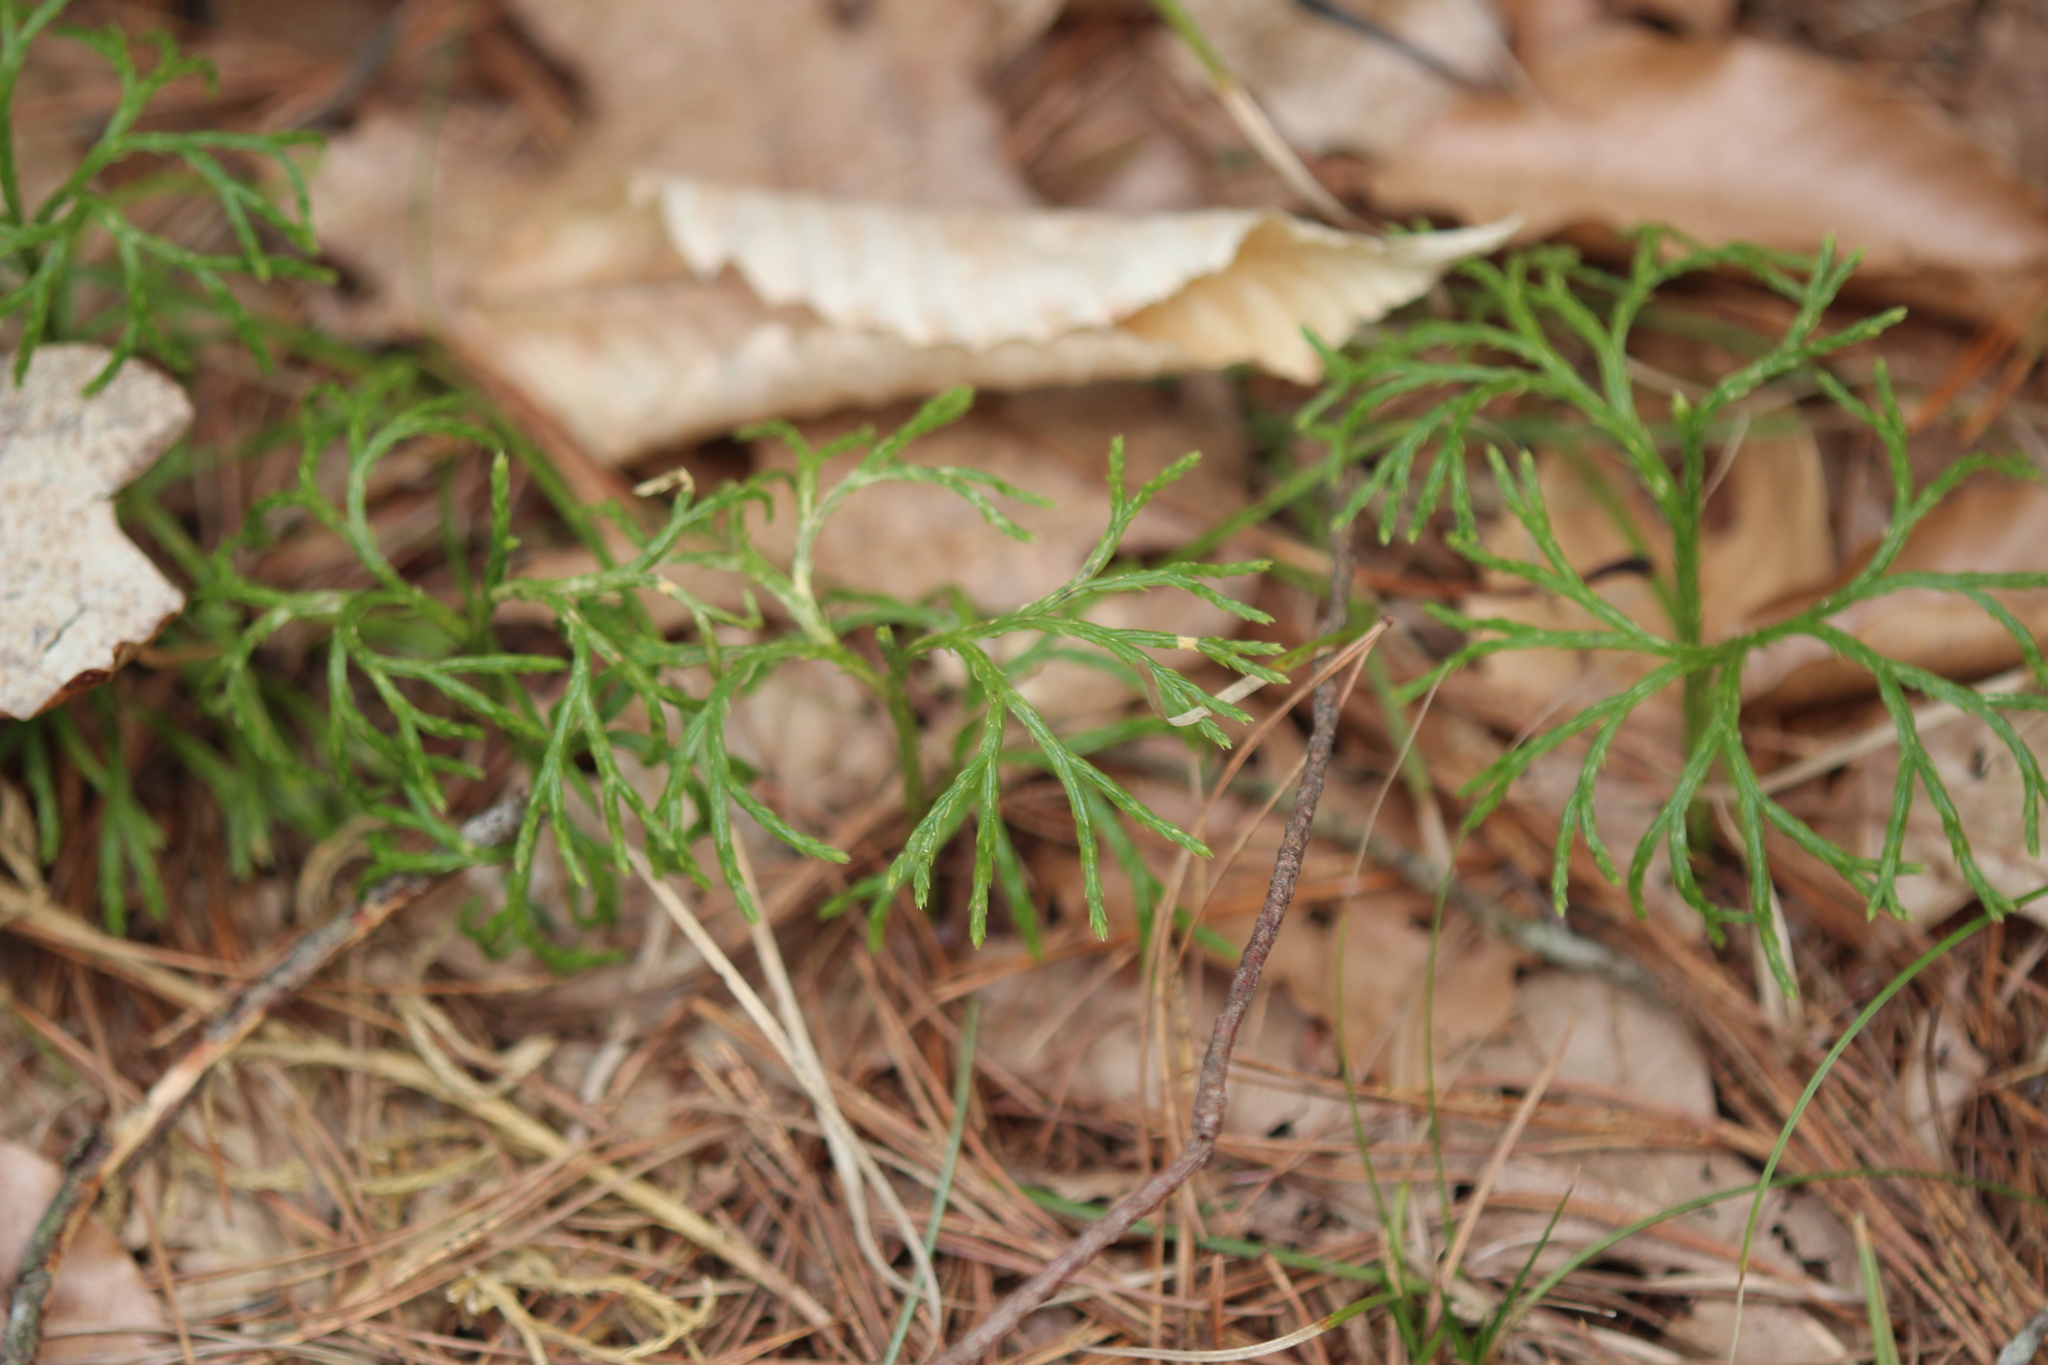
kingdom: Plantae
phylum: Tracheophyta
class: Lycopodiopsida
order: Lycopodiales
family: Lycopodiaceae
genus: Diphasiastrum
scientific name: Diphasiastrum digitatum
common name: Southern running-pine
